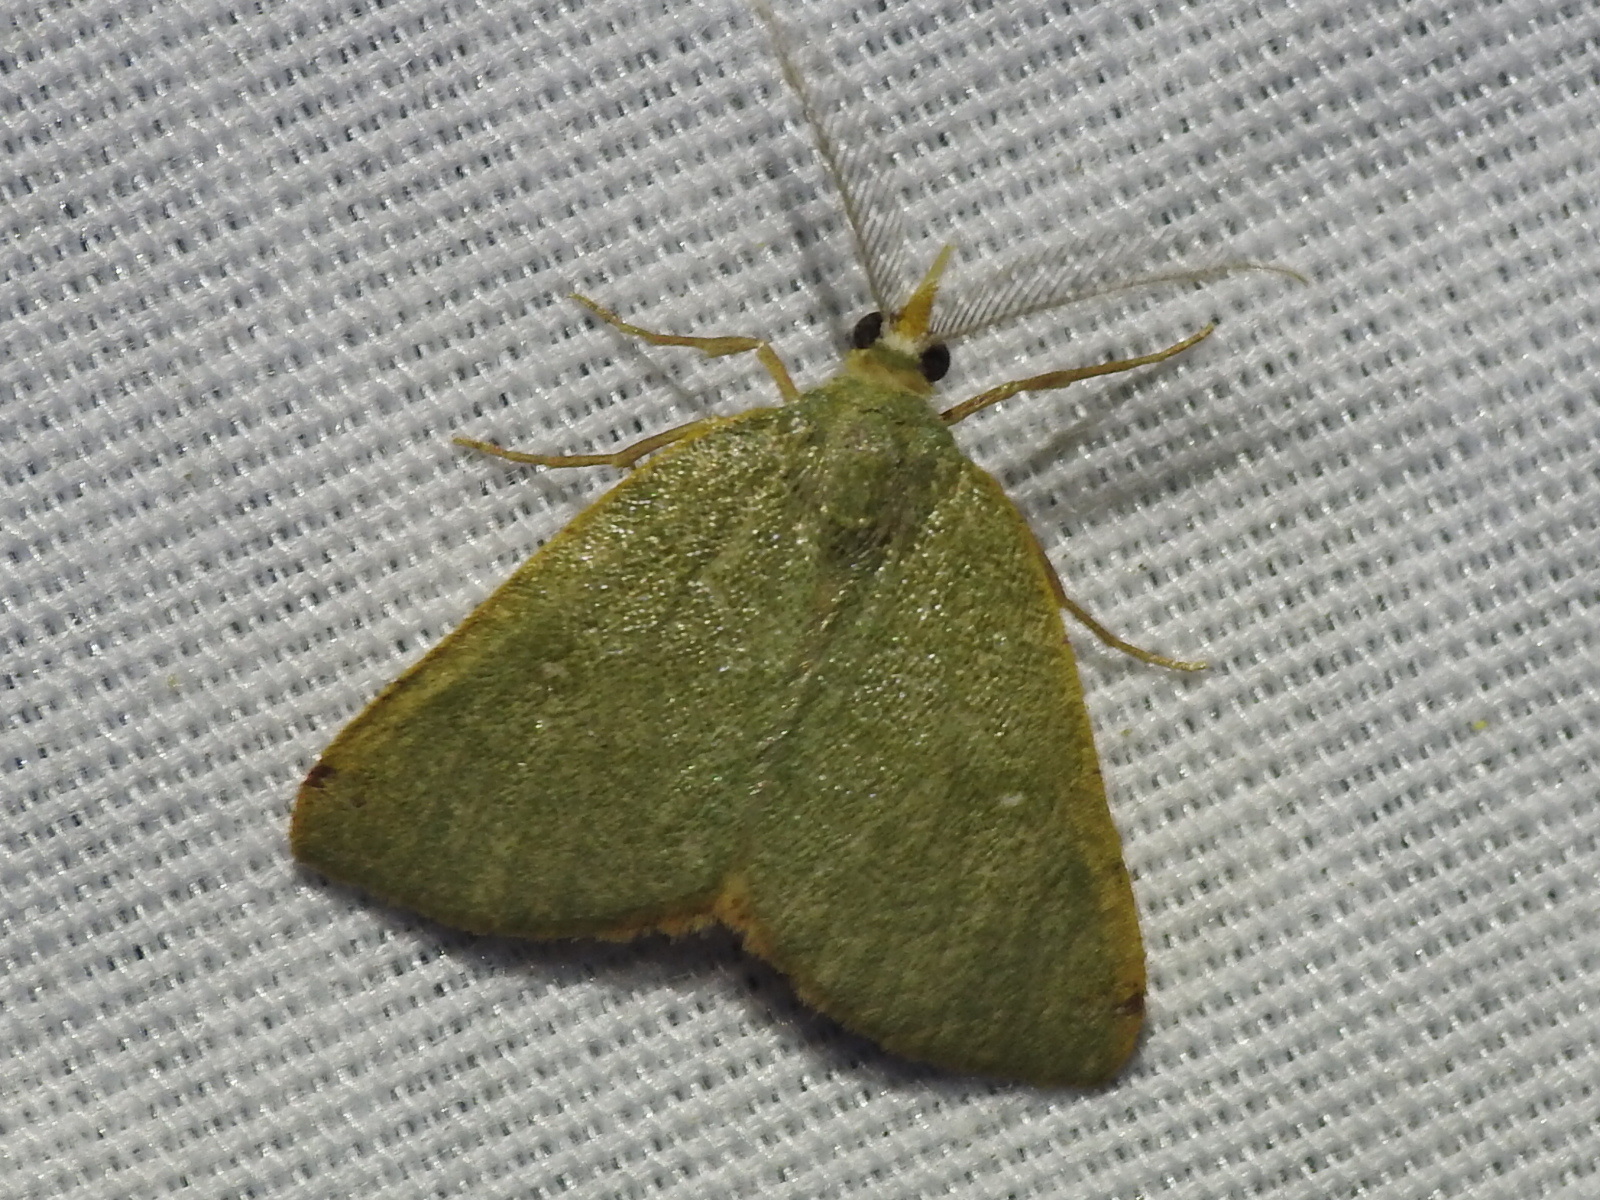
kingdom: Animalia
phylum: Arthropoda
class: Insecta
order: Lepidoptera
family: Geometridae
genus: Chloraspilates
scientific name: Chloraspilates bicoloraria
